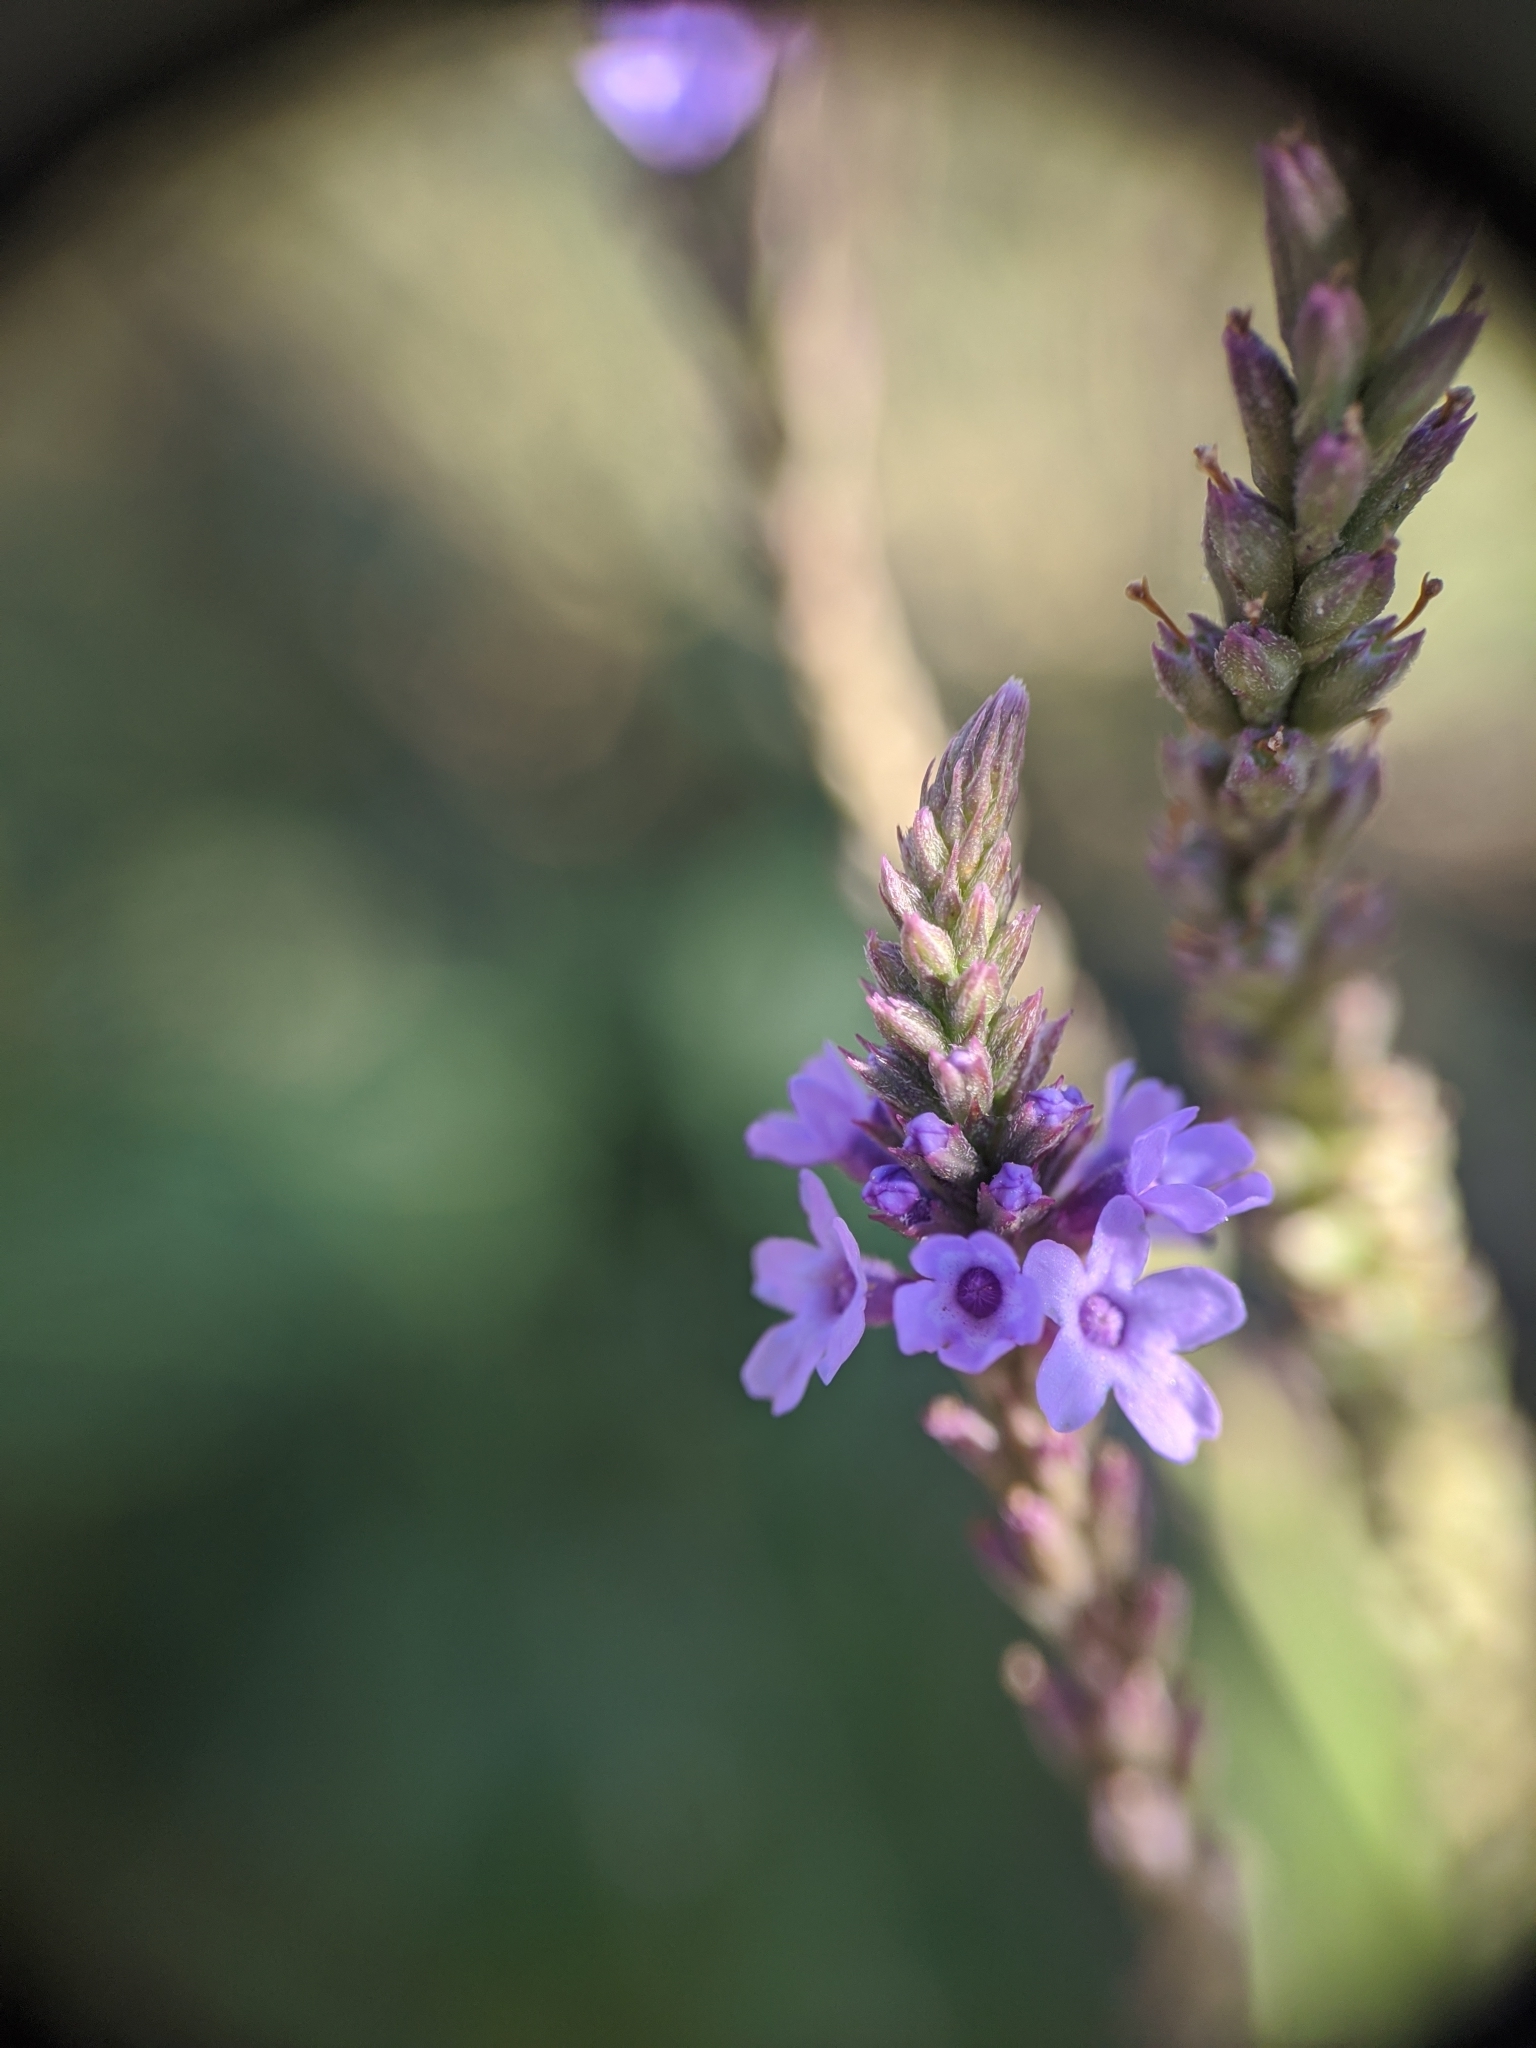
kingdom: Plantae
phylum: Tracheophyta
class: Magnoliopsida
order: Lamiales
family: Verbenaceae
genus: Verbena
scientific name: Verbena hastata
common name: American blue vervain
